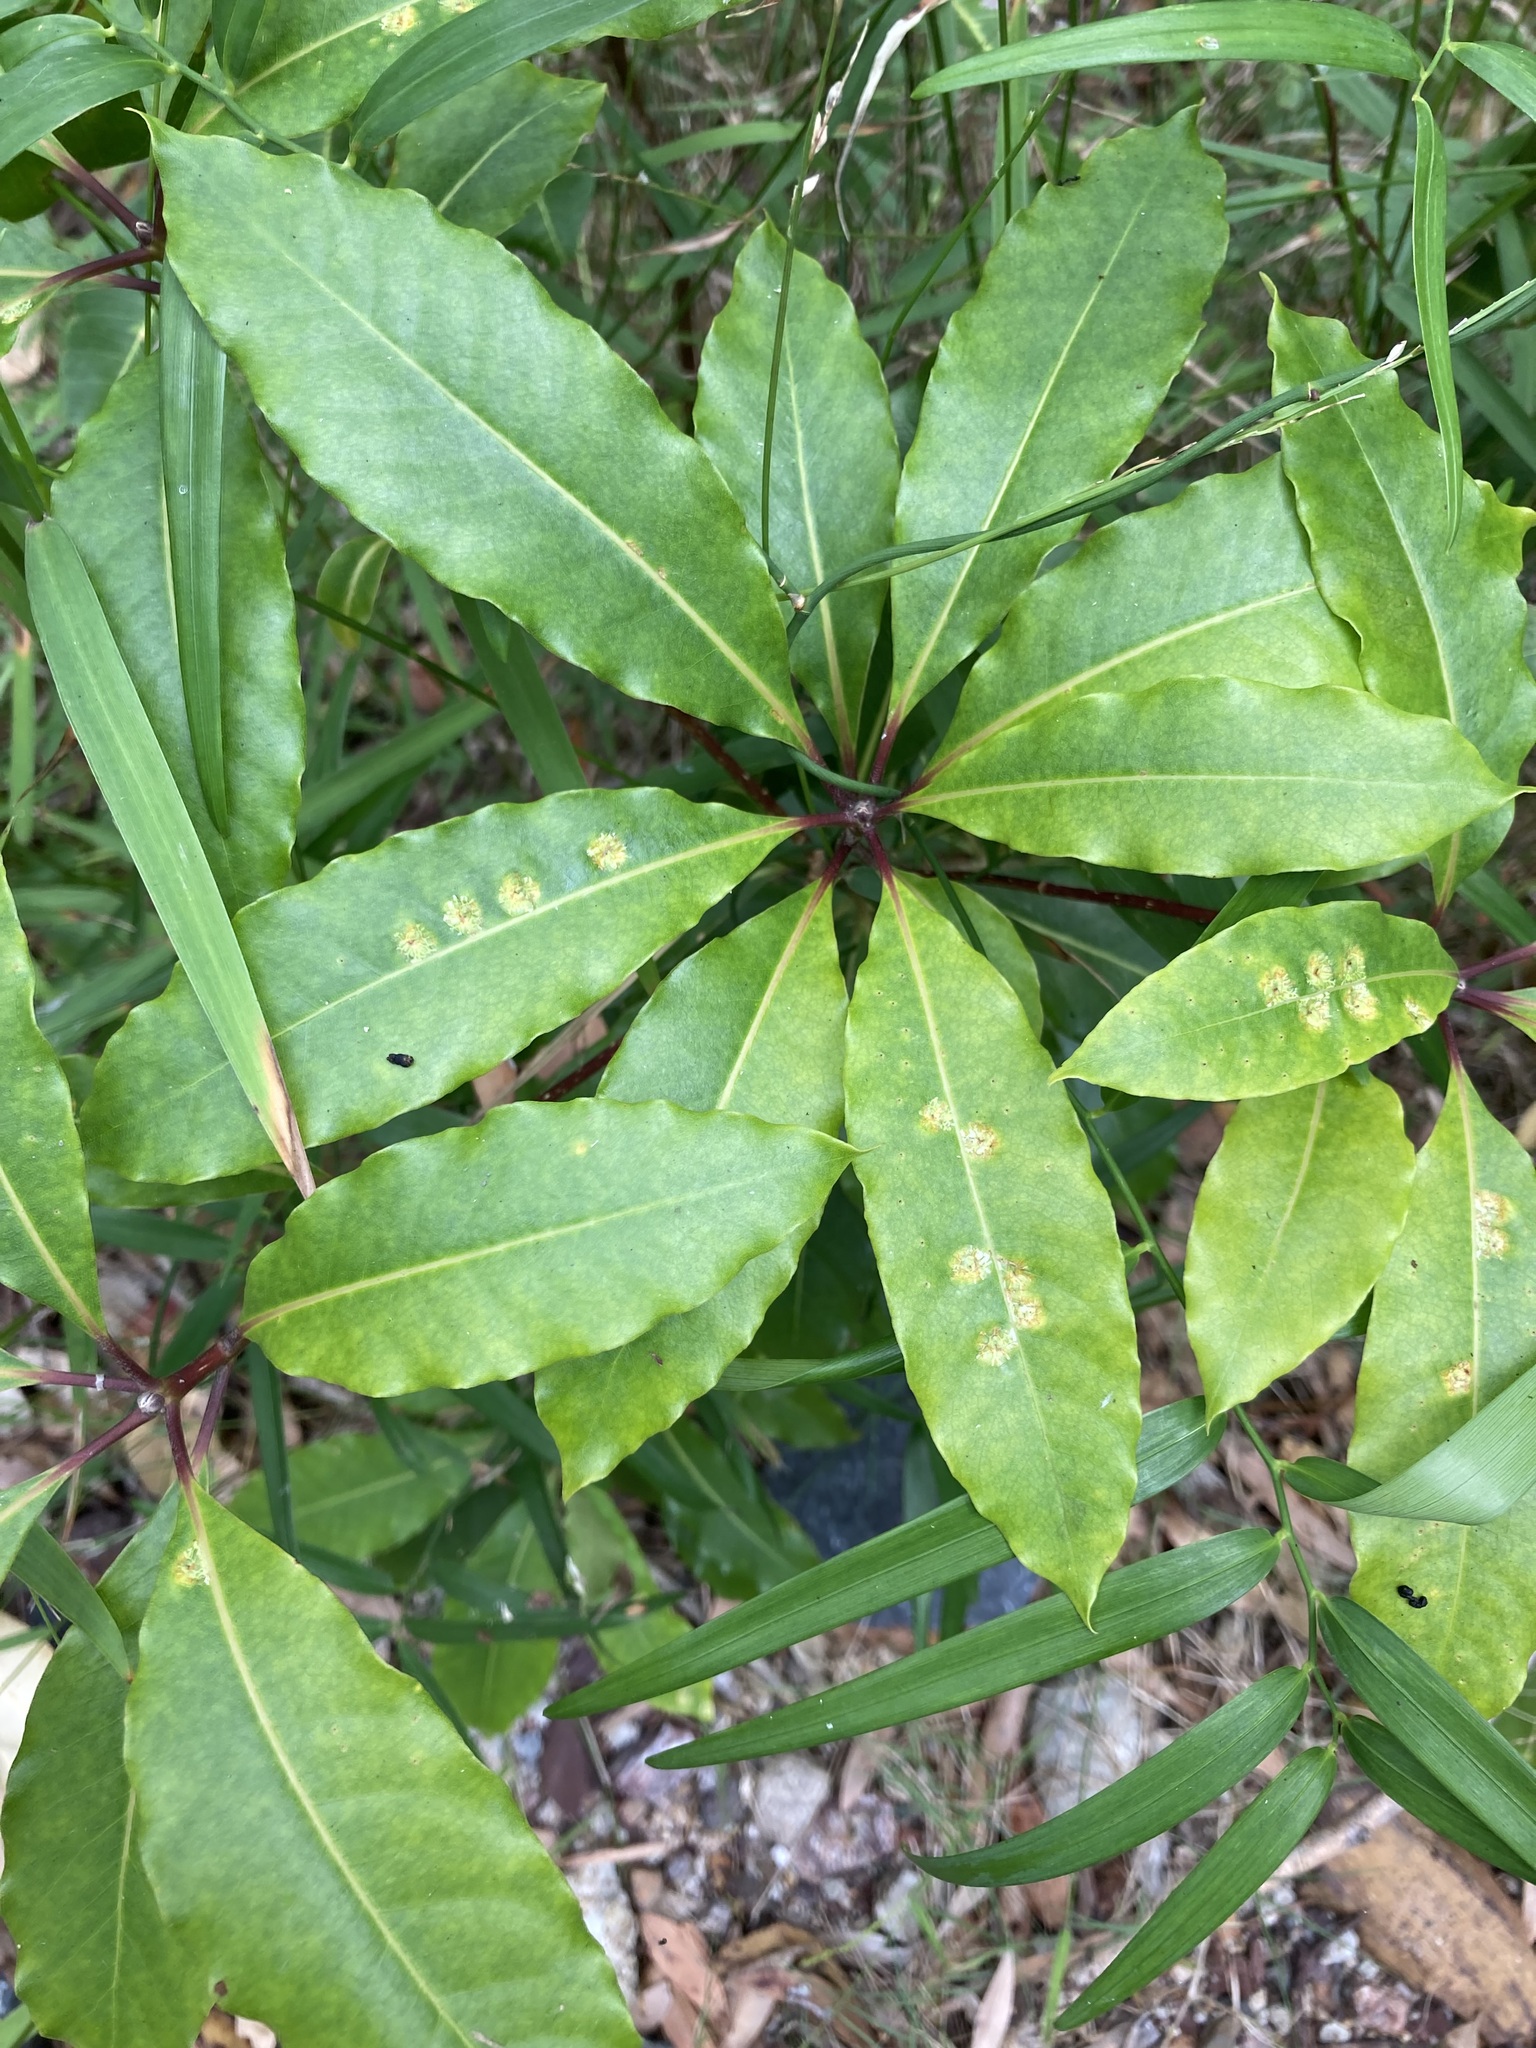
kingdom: Animalia
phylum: Arthropoda
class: Insecta
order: Diptera
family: Agromyzidae
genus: Phytoliriomyza
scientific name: Phytoliriomyza pittosporophylli
